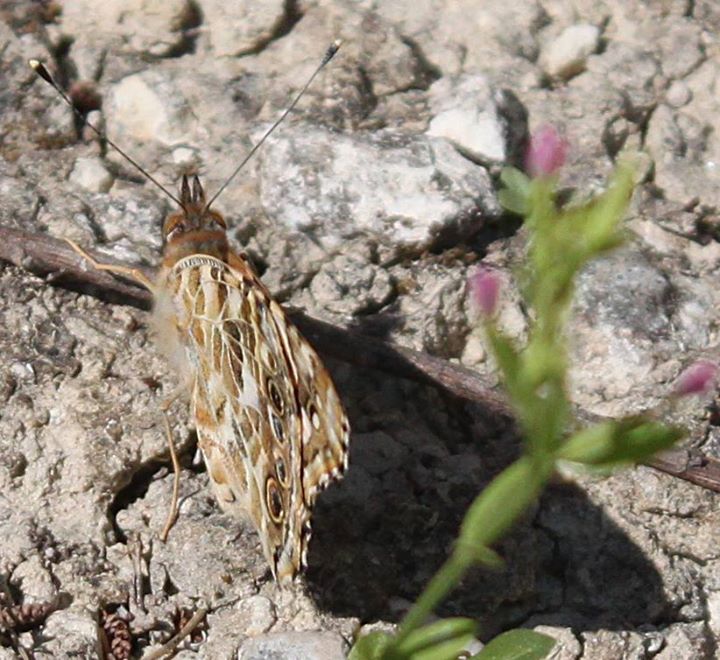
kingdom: Animalia
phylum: Arthropoda
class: Insecta
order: Lepidoptera
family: Nymphalidae
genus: Vanessa
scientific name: Vanessa cardui
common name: Painted lady
